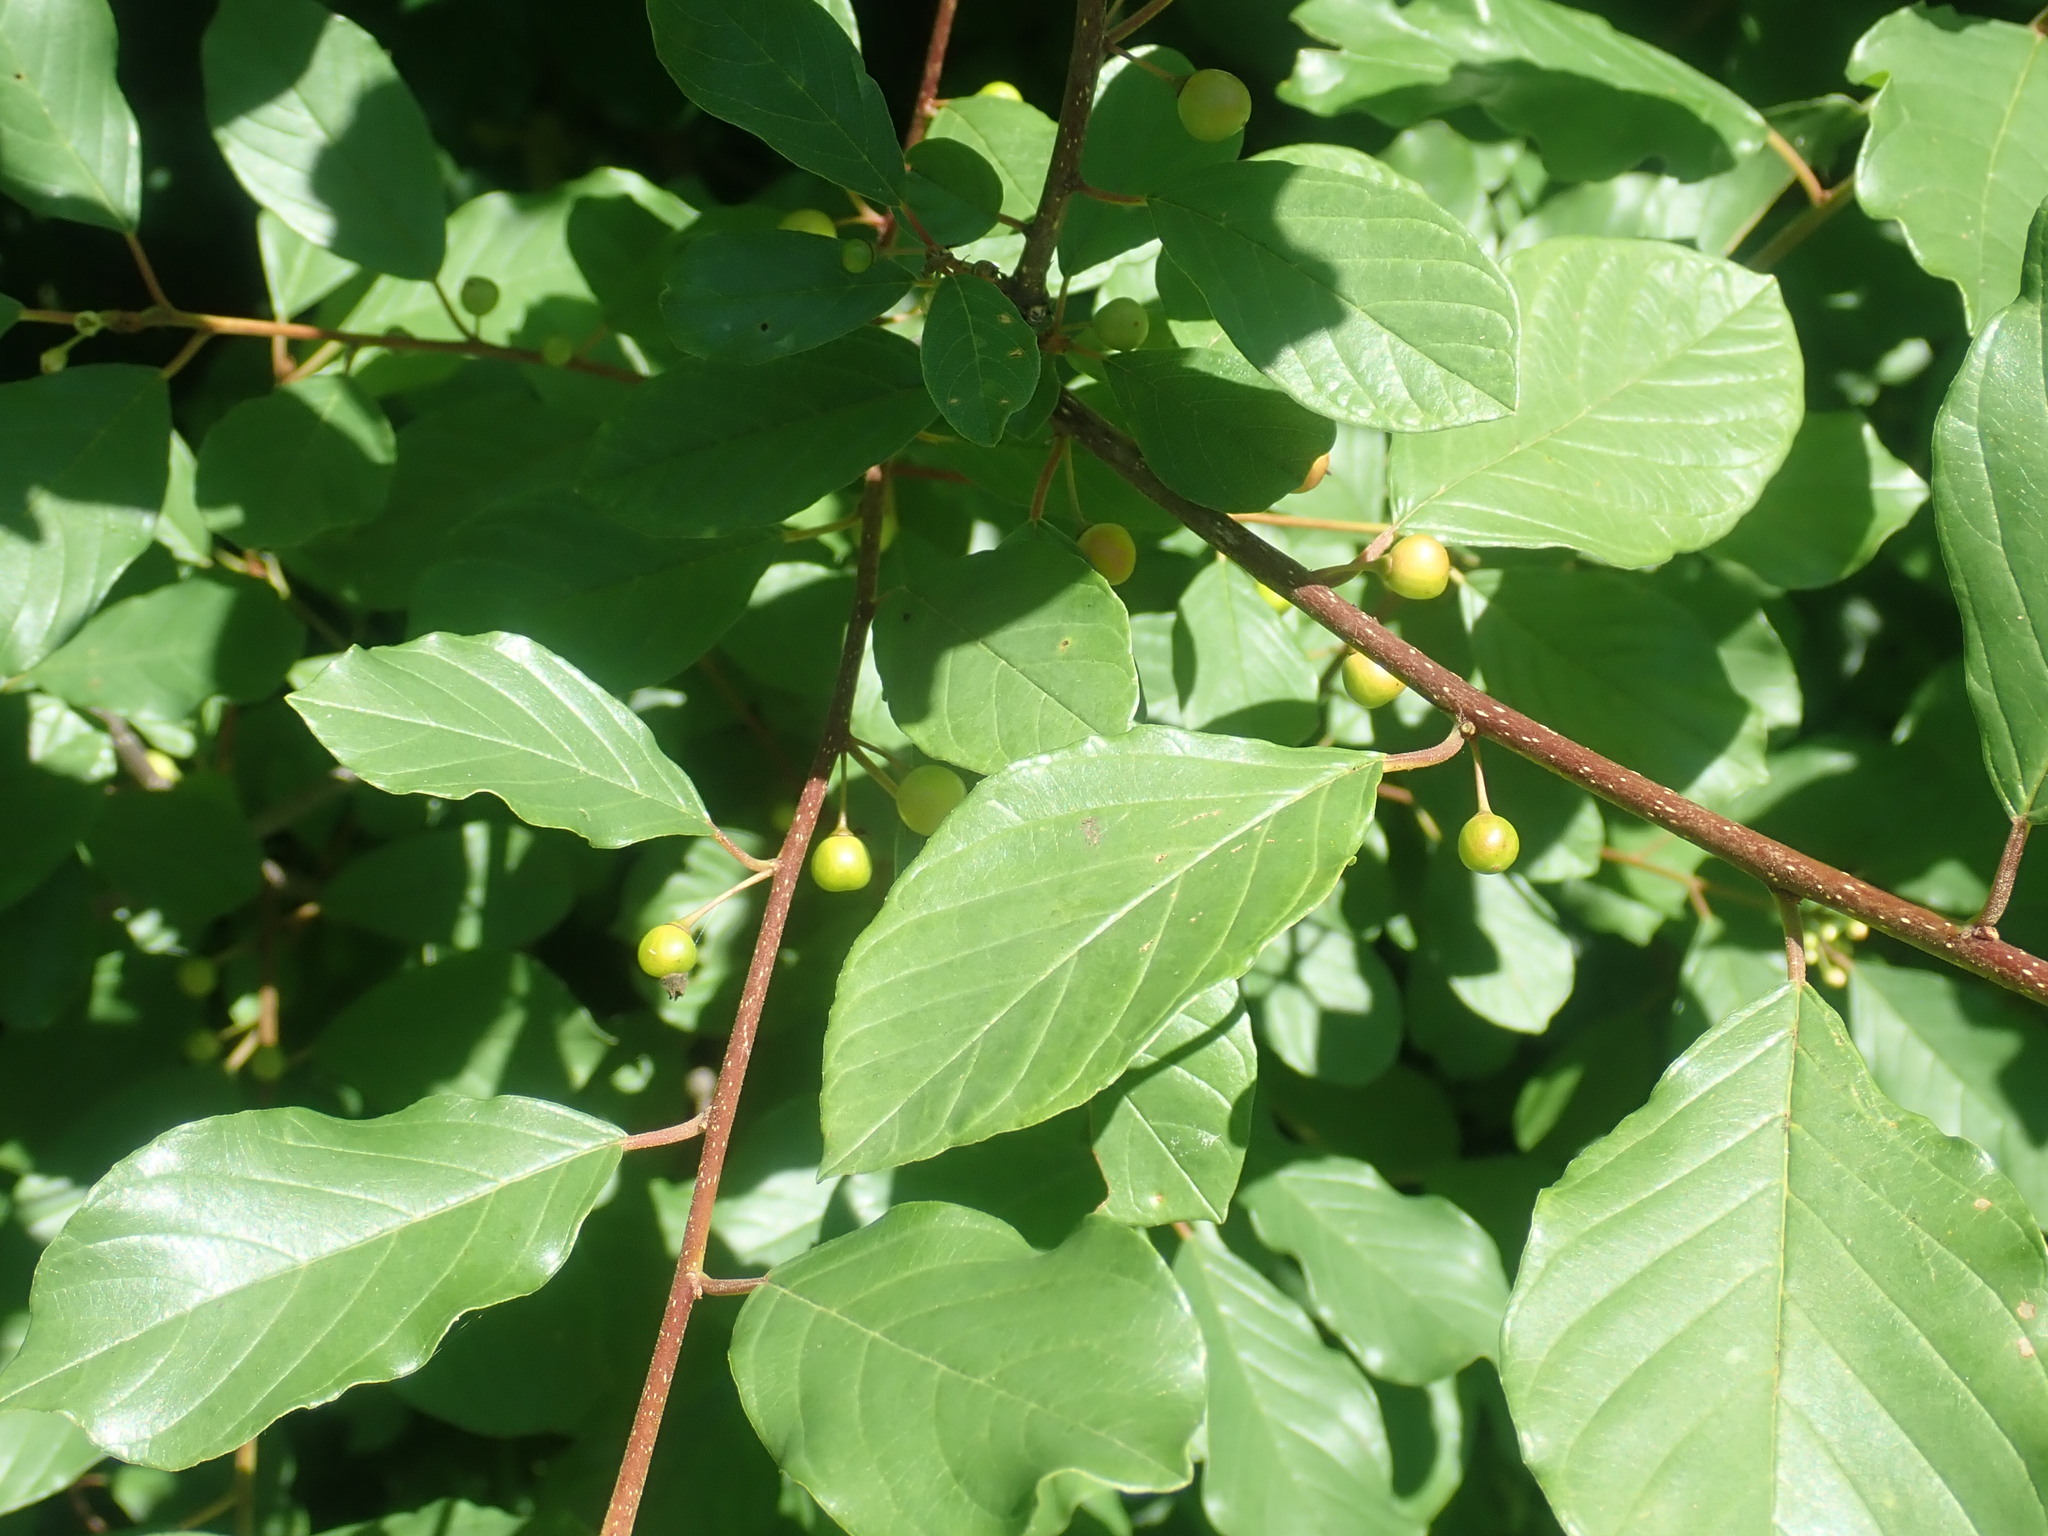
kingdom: Plantae
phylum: Tracheophyta
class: Magnoliopsida
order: Rosales
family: Rhamnaceae
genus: Frangula
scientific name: Frangula alnus
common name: Alder buckthorn
